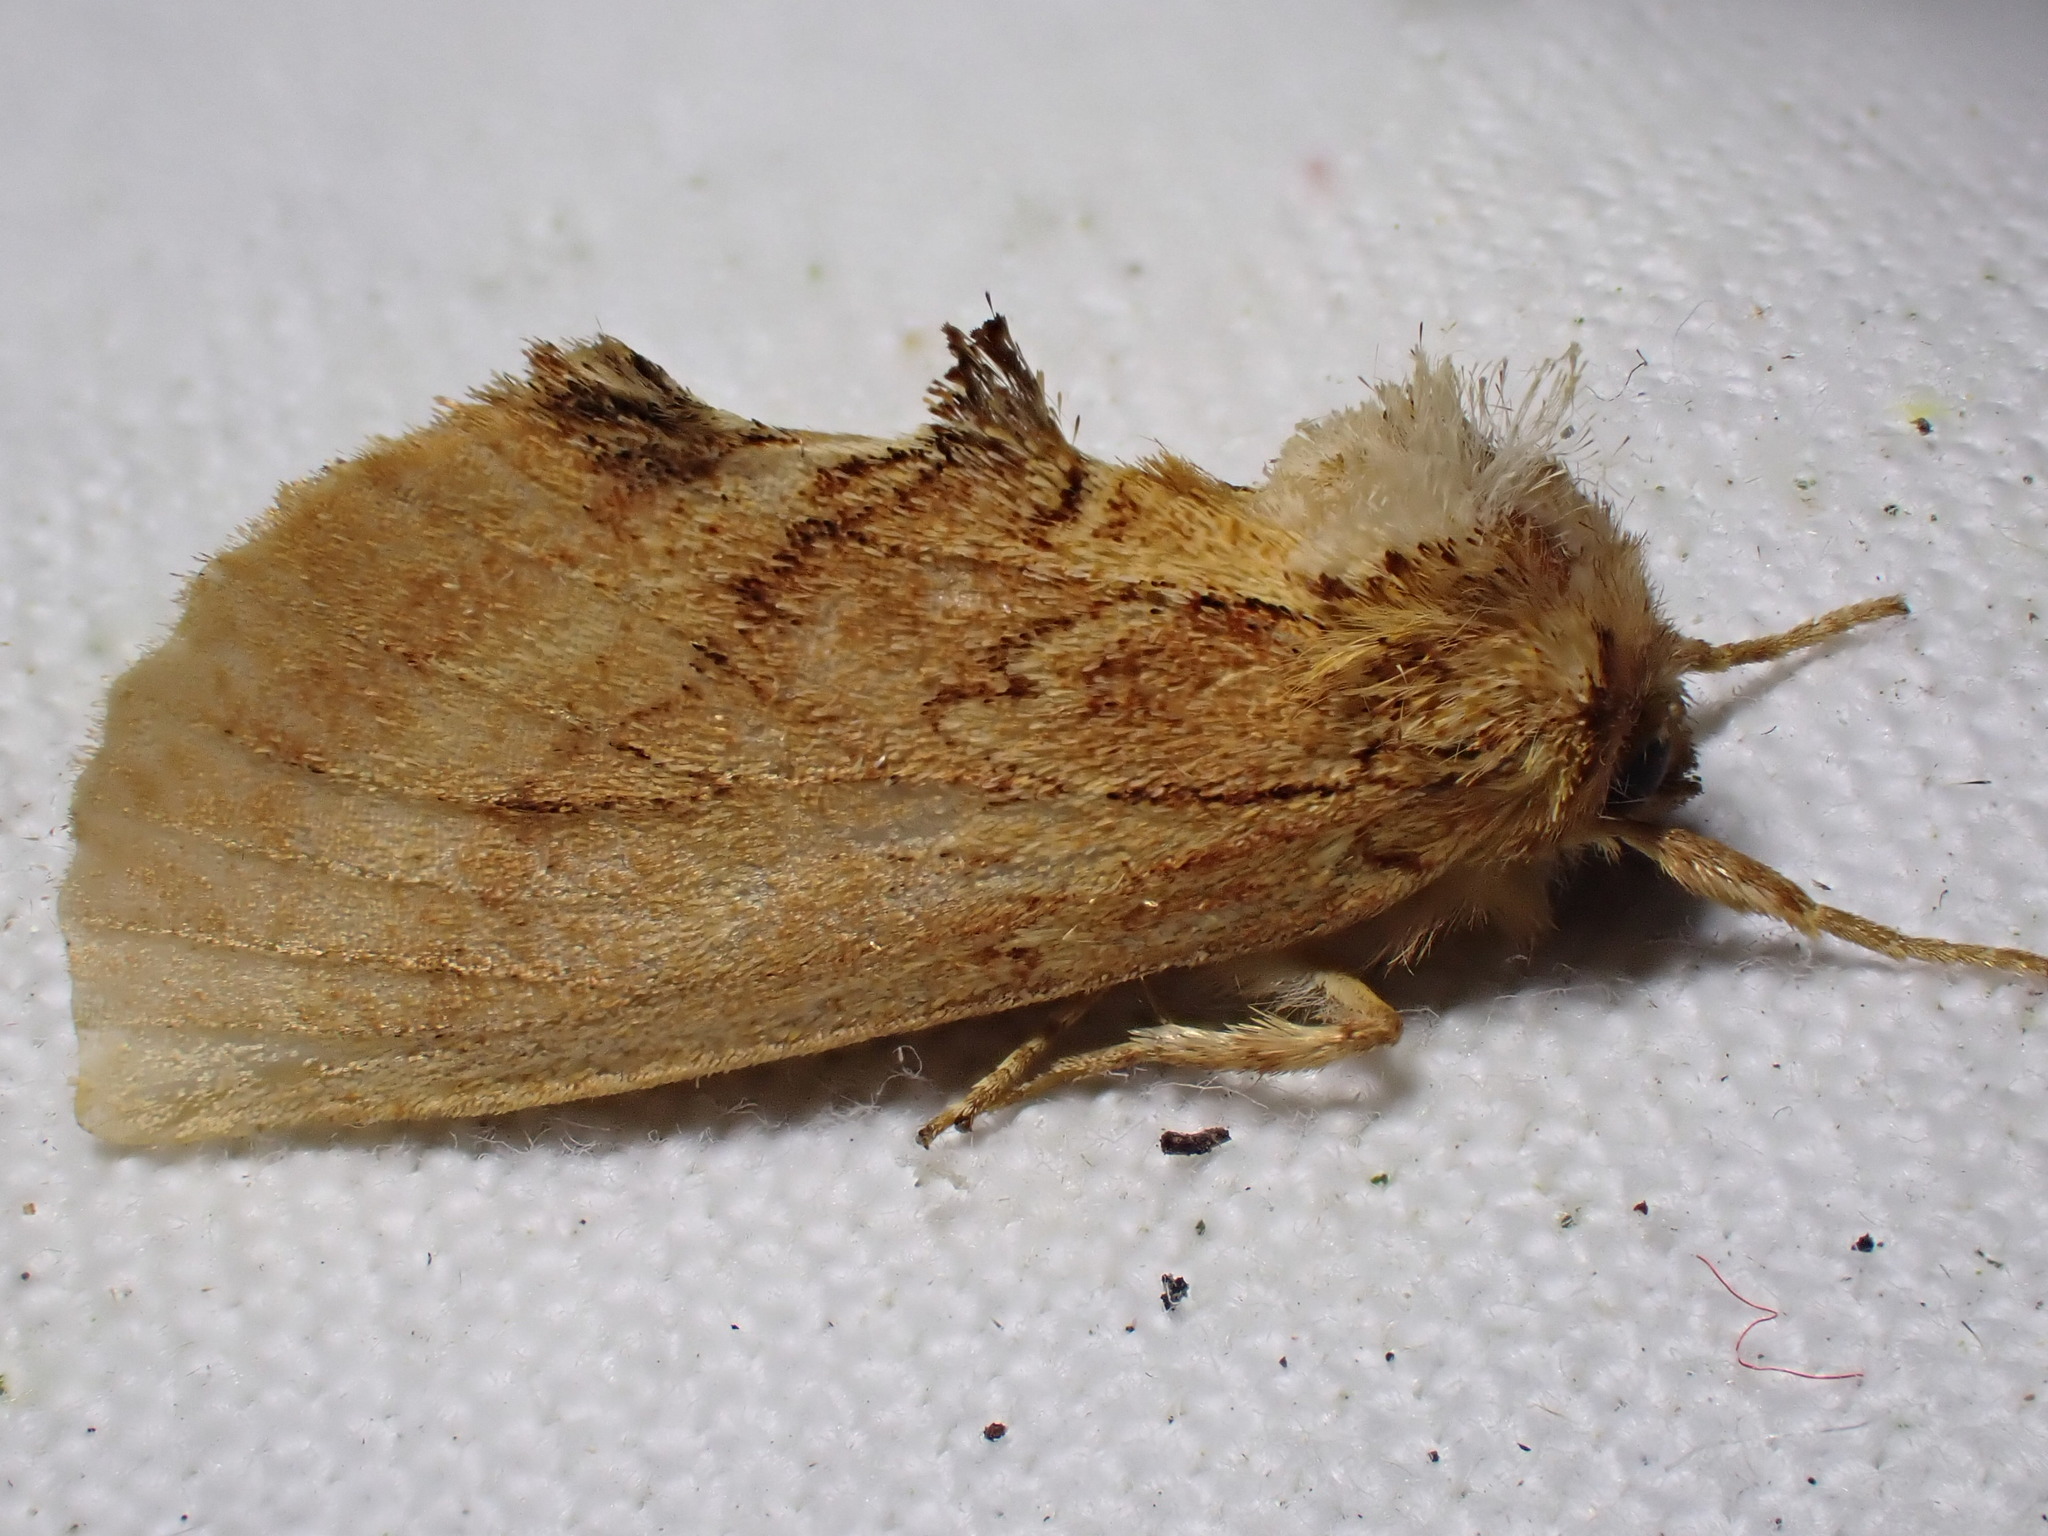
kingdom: Animalia
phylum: Arthropoda
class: Insecta
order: Lepidoptera
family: Notodontidae
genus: Ptilodon
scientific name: Ptilodon capucina
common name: Coxcomb prominent
